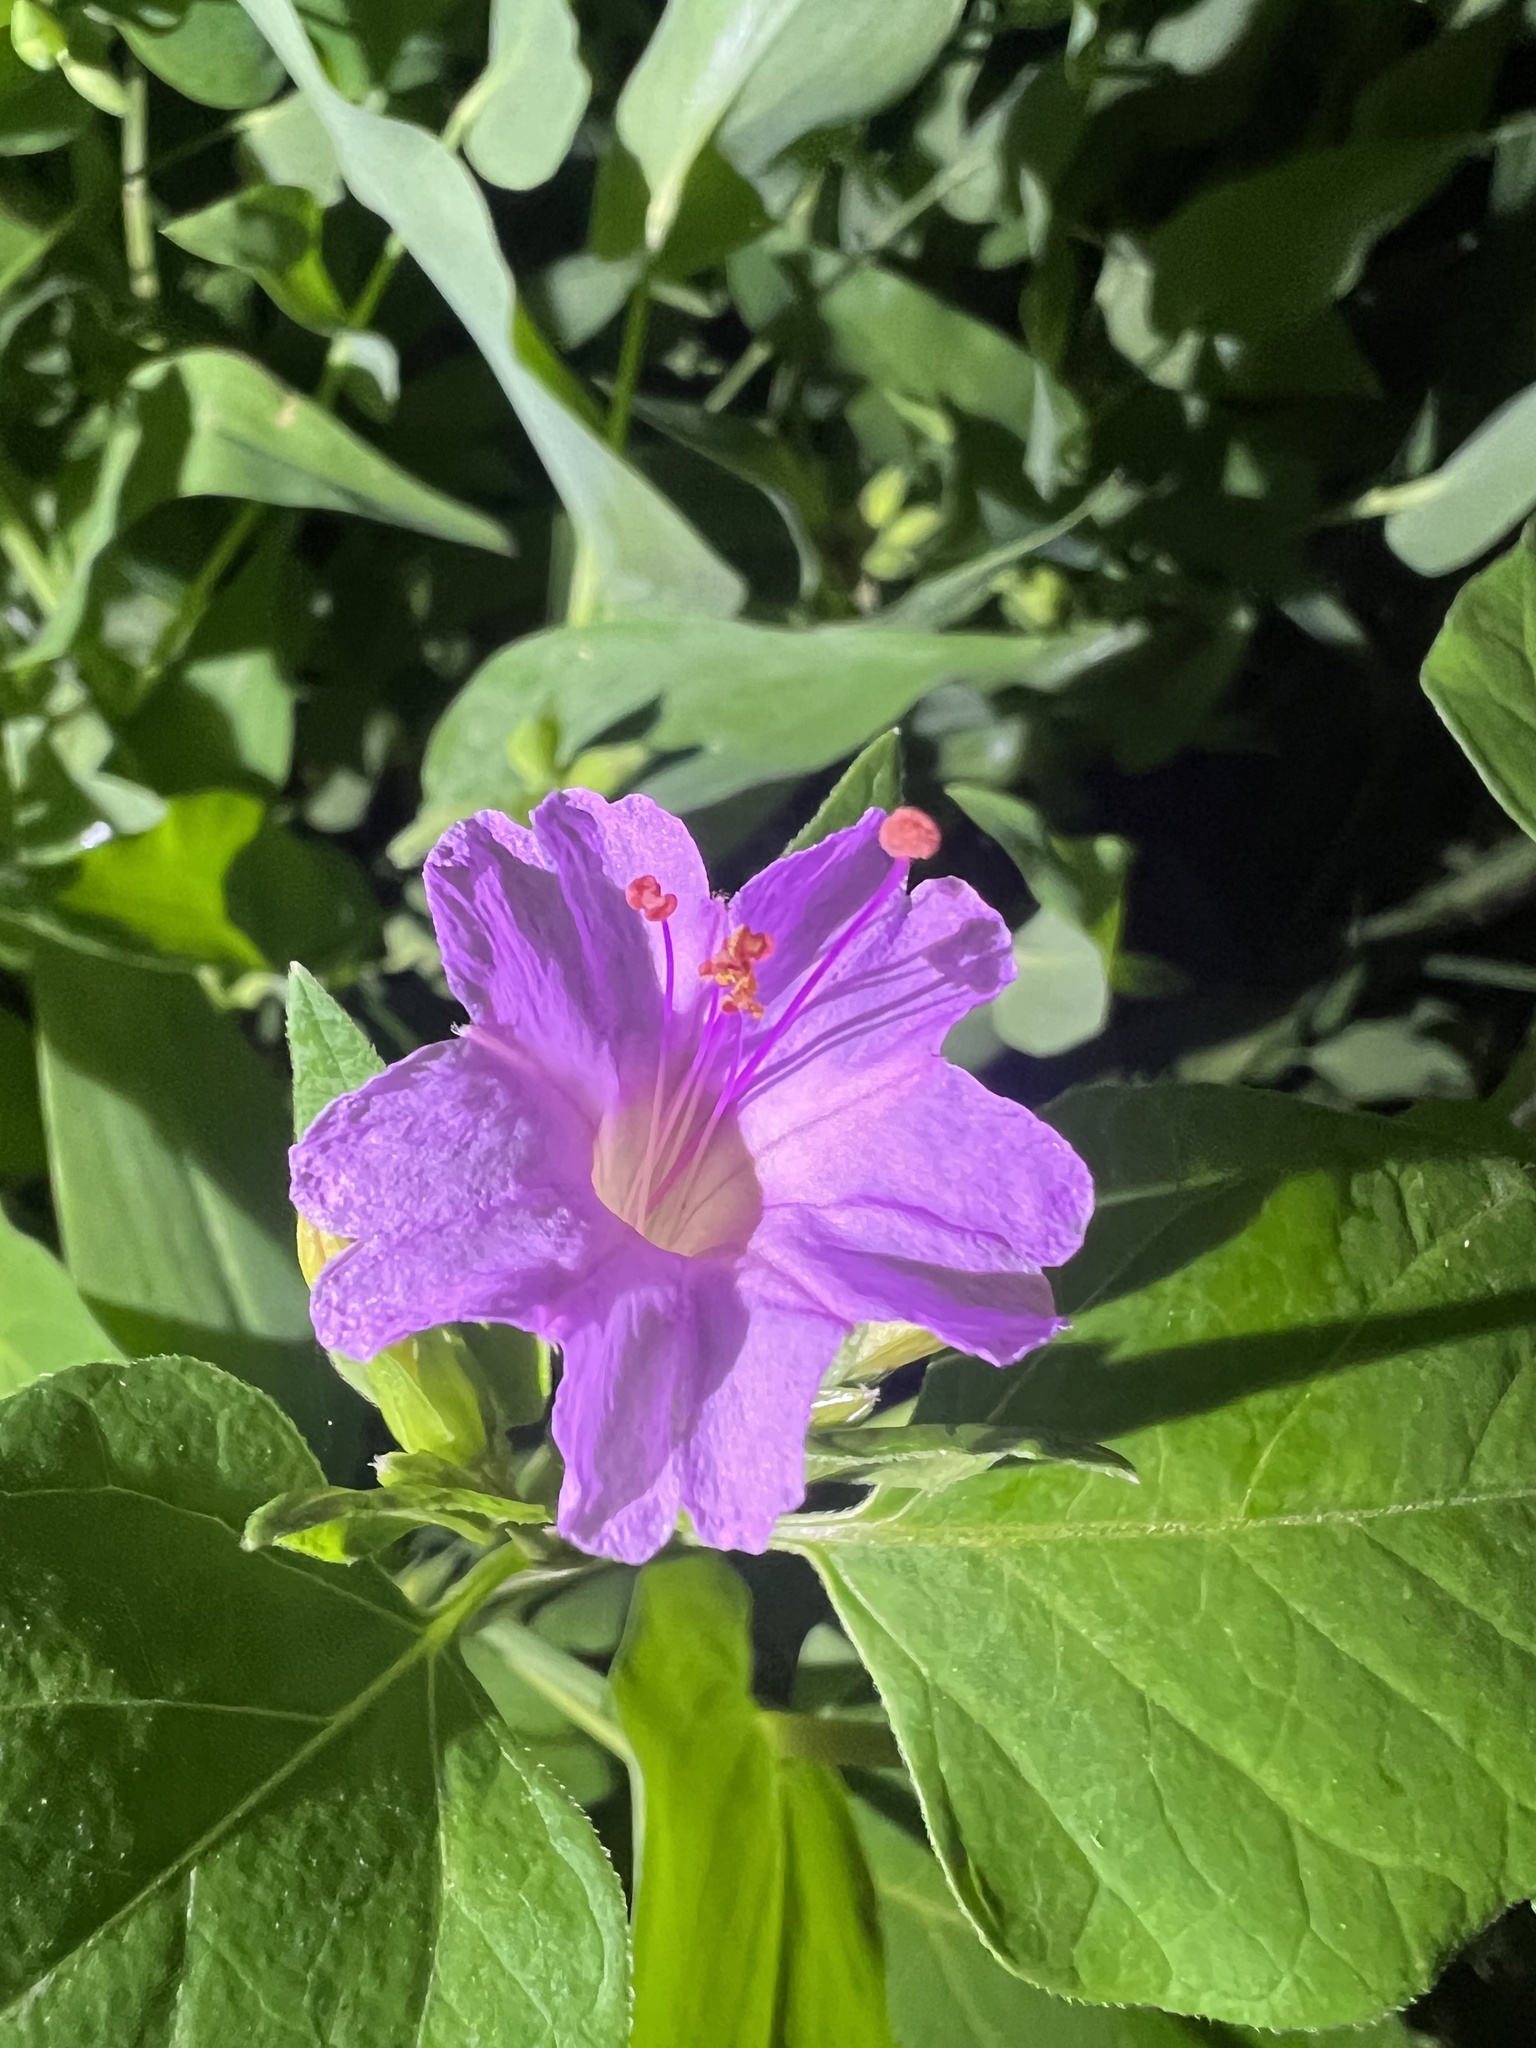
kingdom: Plantae
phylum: Tracheophyta
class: Magnoliopsida
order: Caryophyllales
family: Nyctaginaceae
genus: Mirabilis
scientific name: Mirabilis jalapa
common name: Marvel-of-peru
